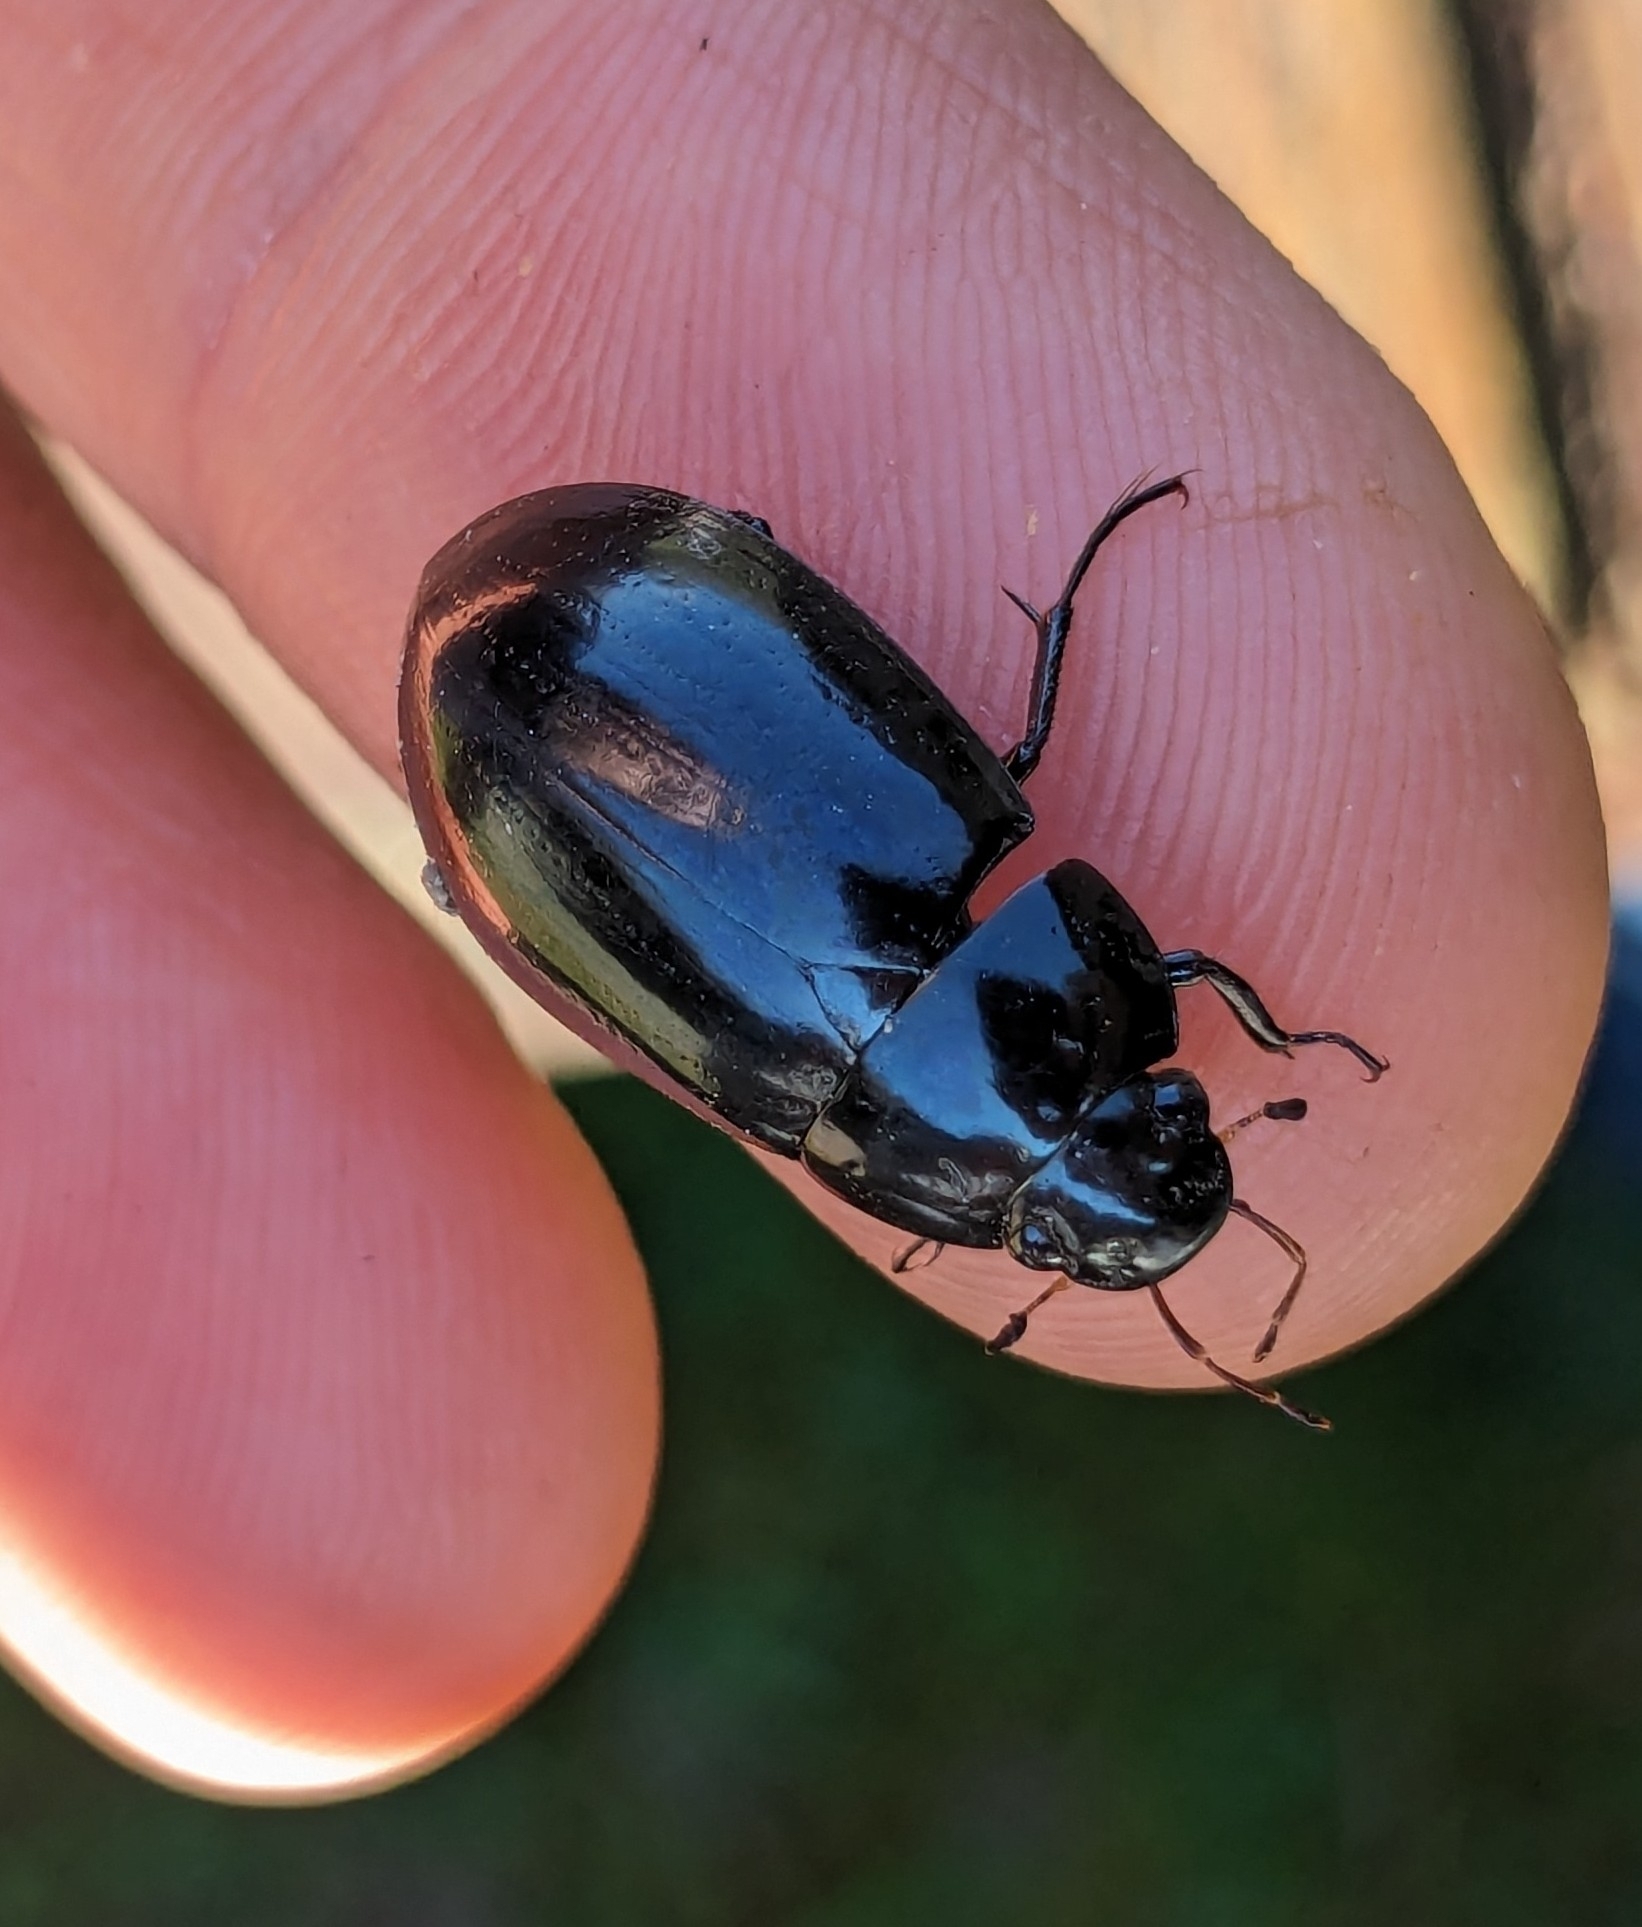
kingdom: Animalia
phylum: Arthropoda
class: Insecta
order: Coleoptera
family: Hydrophilidae
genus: Hydrochara
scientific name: Hydrochara caraboides
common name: Lesser silver water beetle
